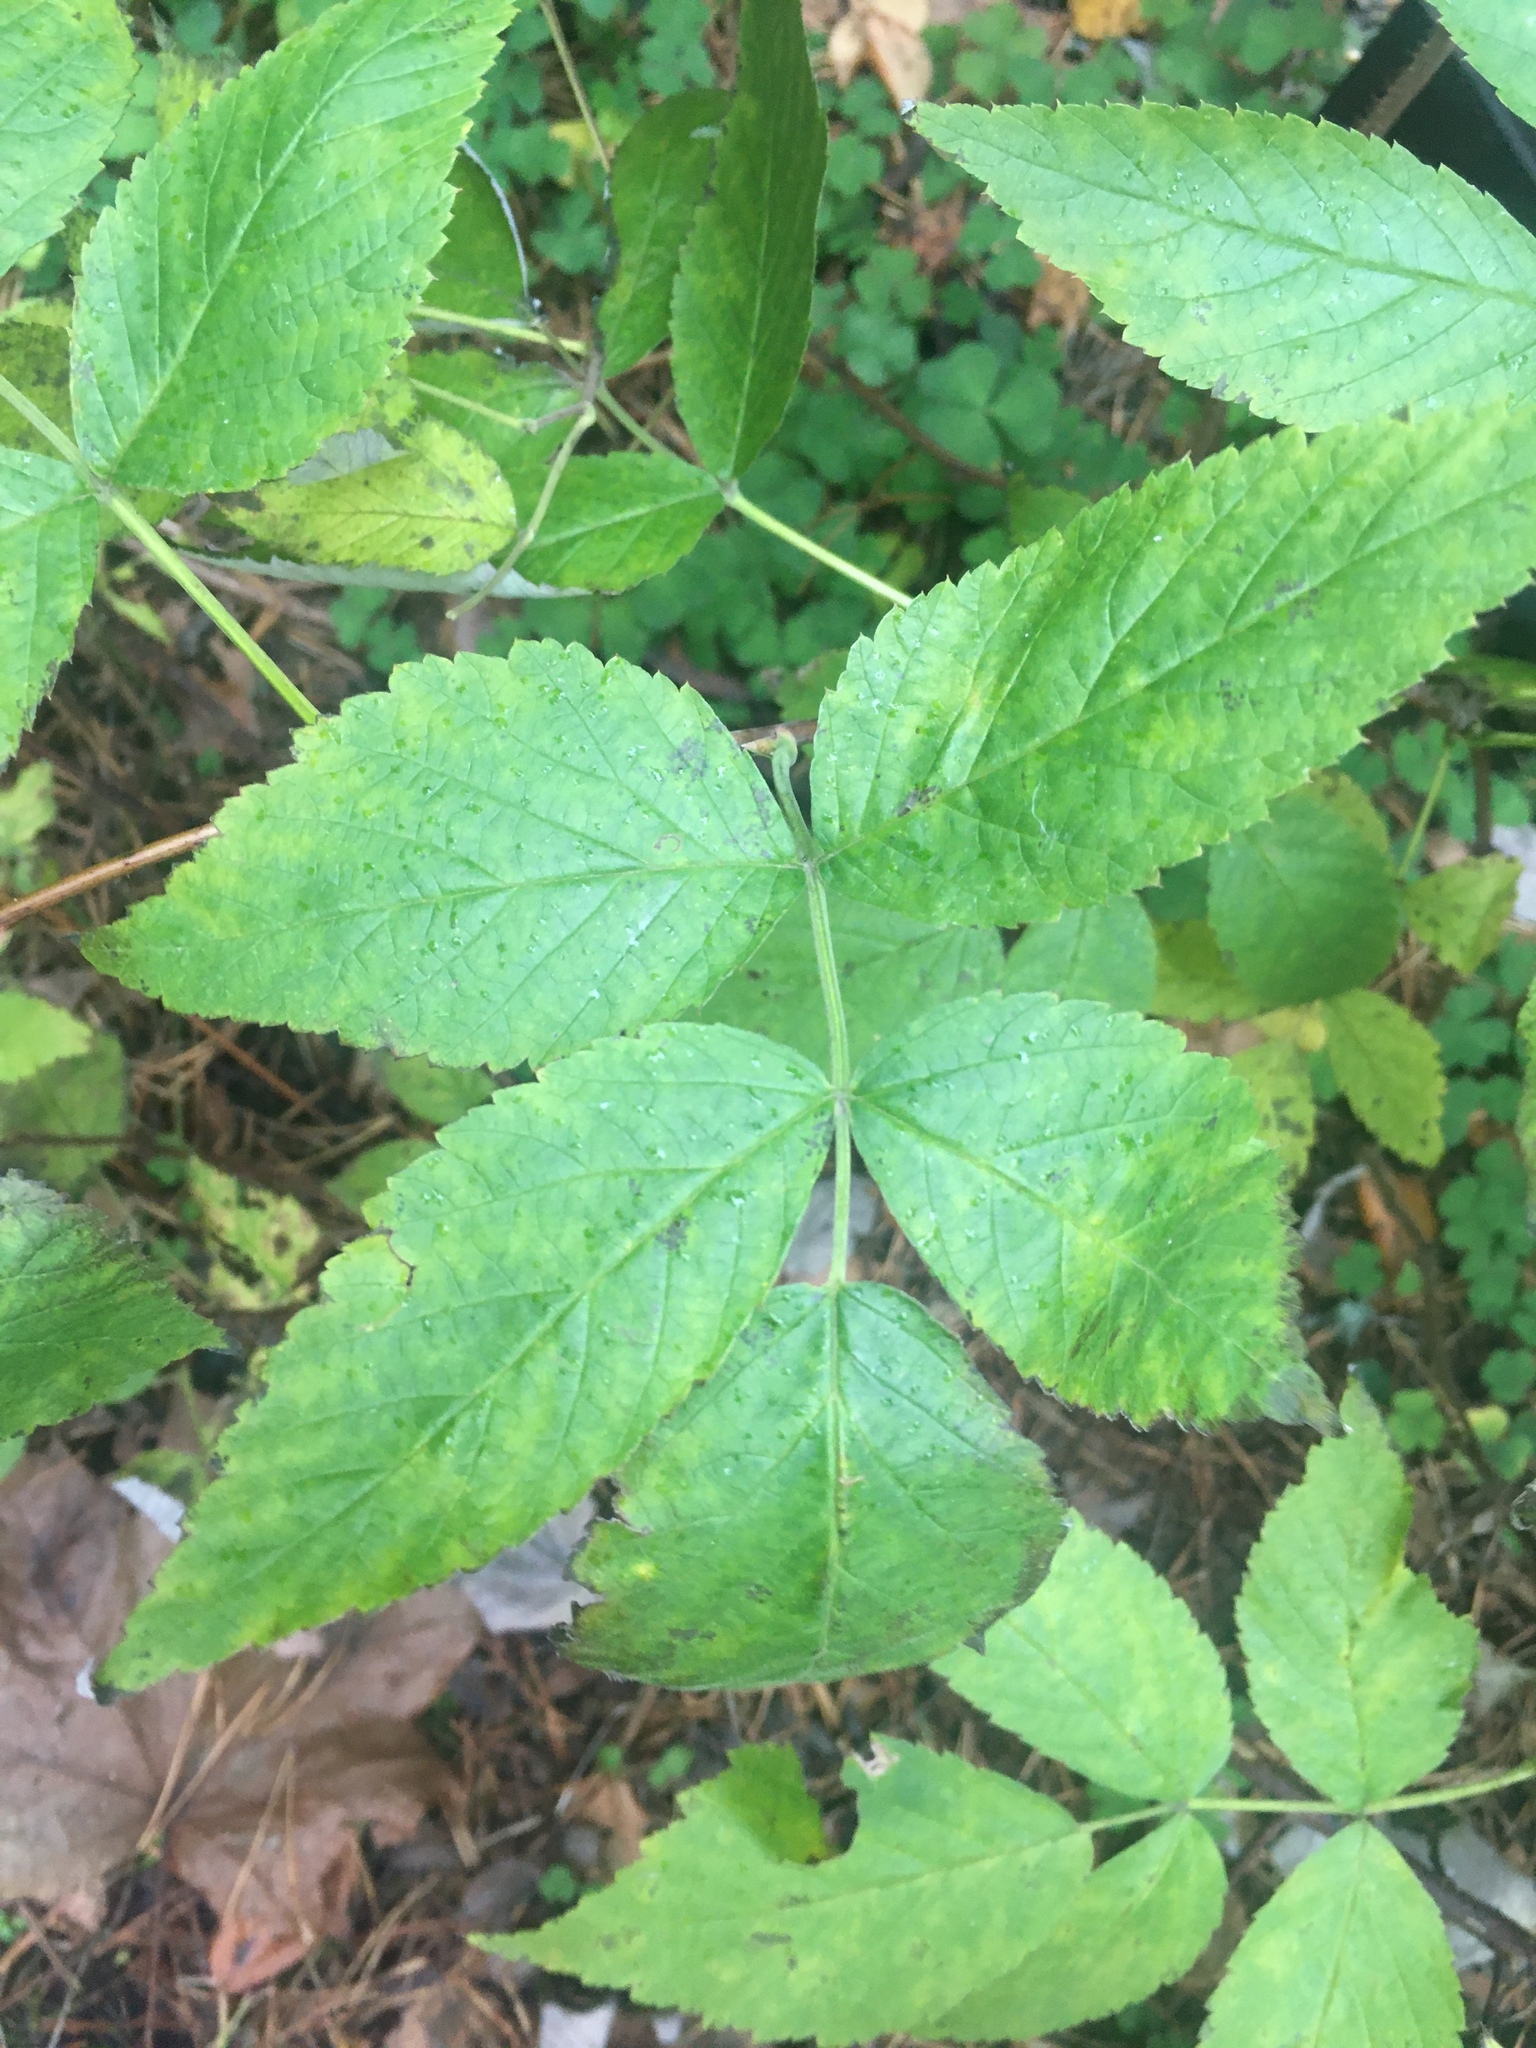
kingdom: Plantae
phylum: Tracheophyta
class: Magnoliopsida
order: Rosales
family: Rosaceae
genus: Rubus
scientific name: Rubus idaeus
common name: Raspberry
